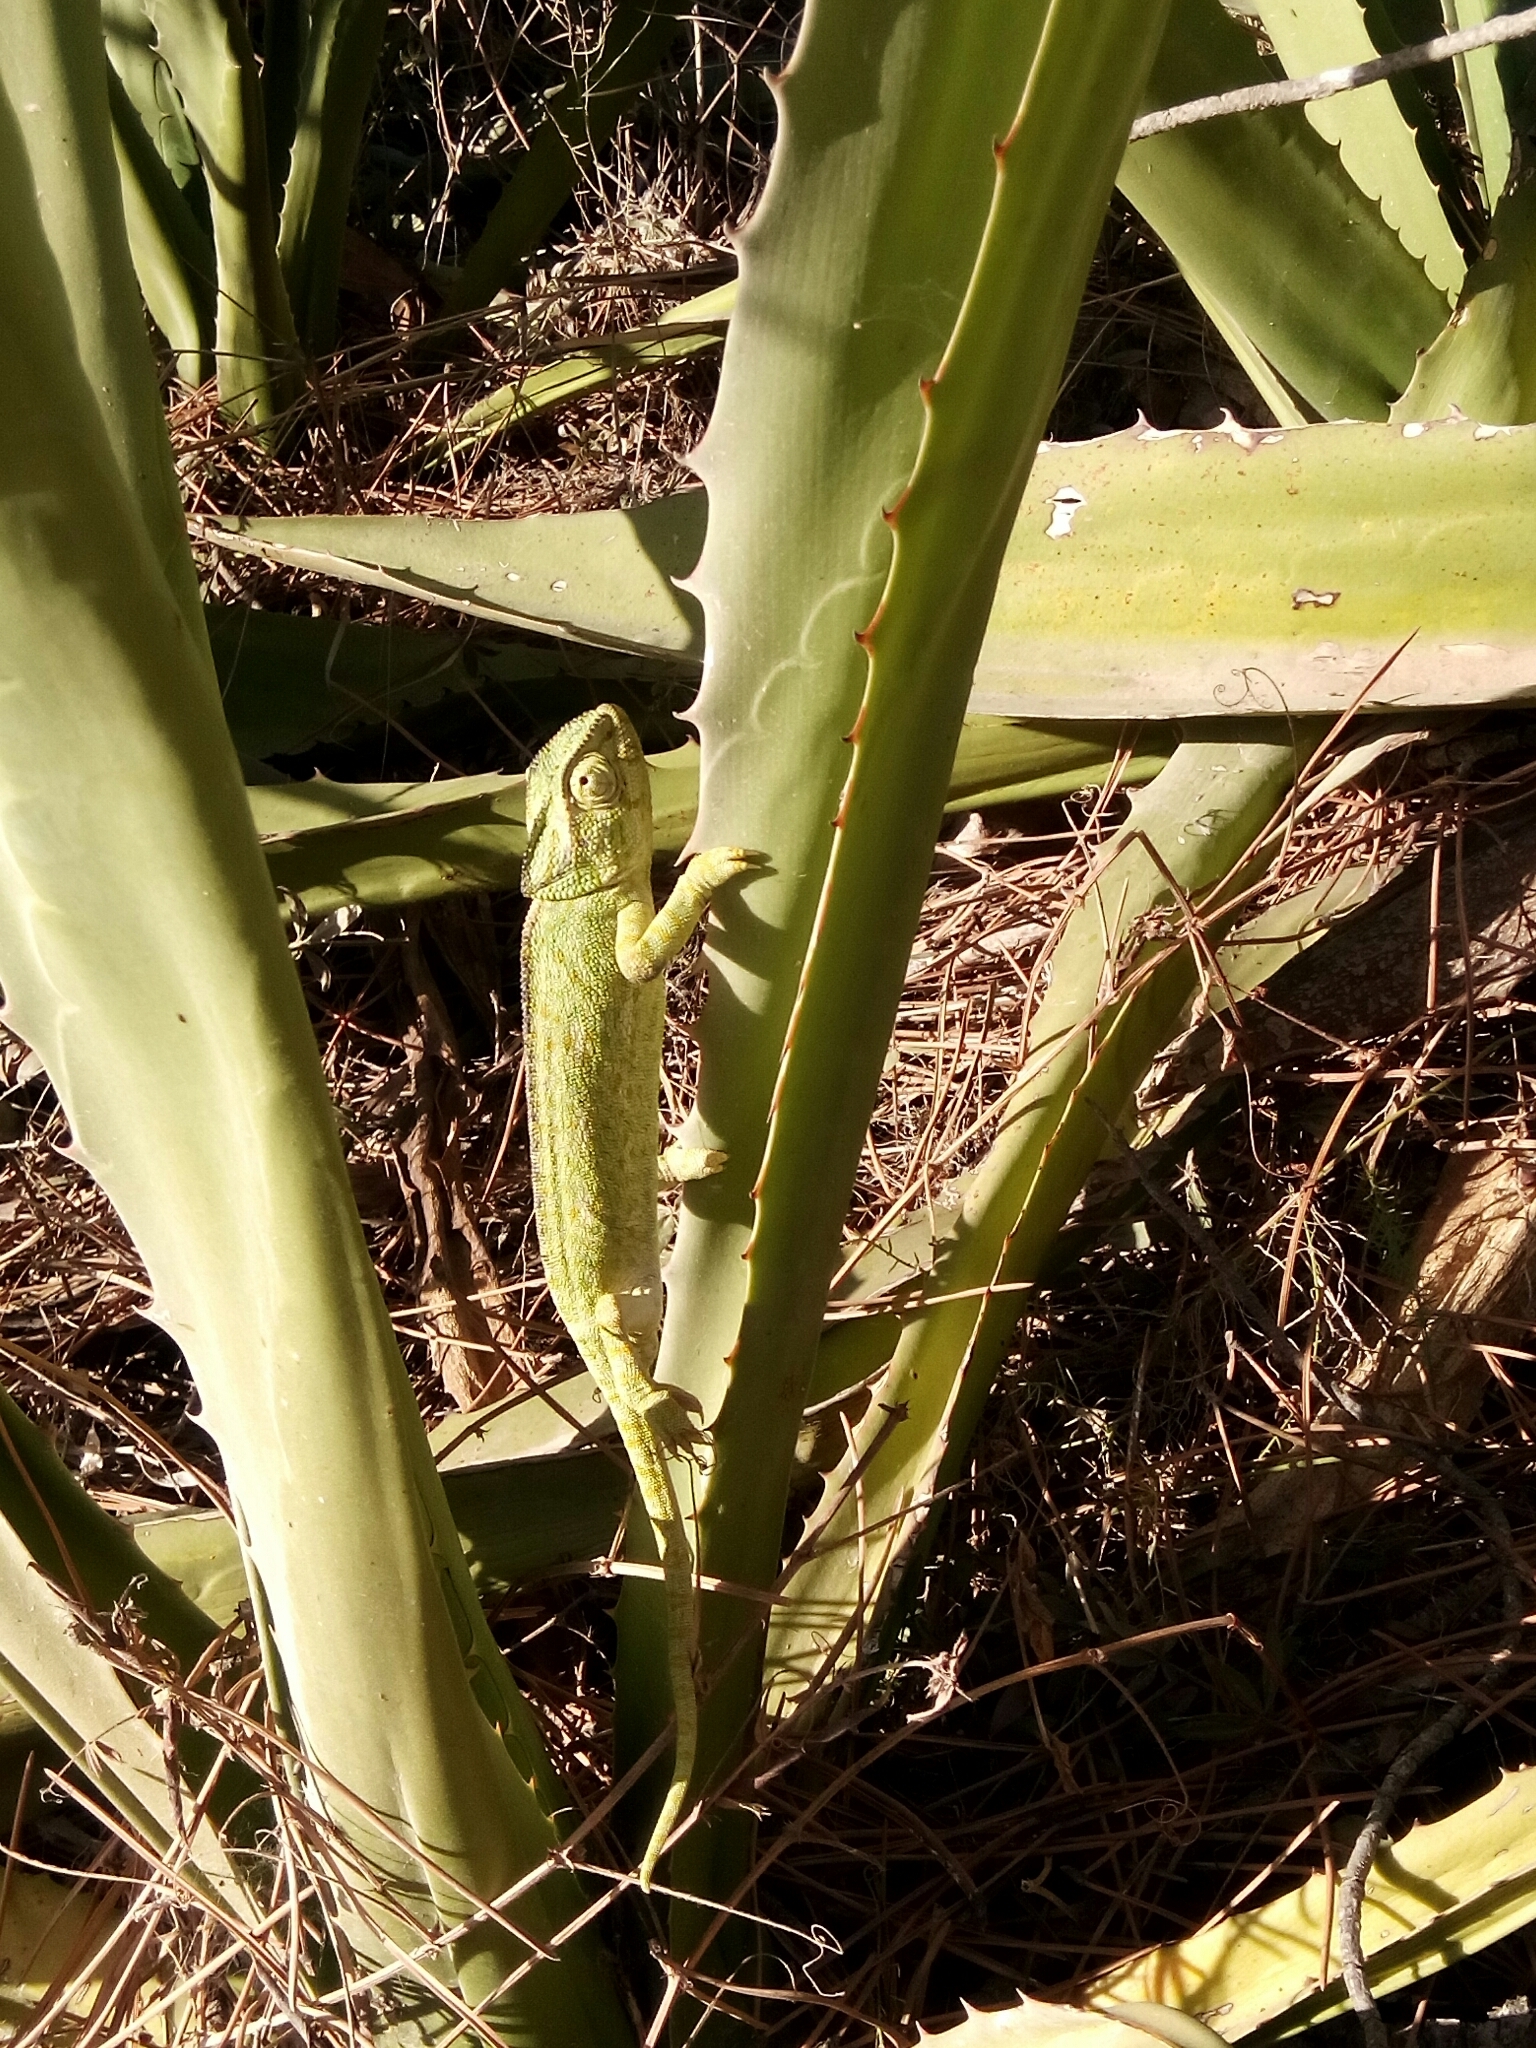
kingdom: Animalia
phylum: Chordata
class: Squamata
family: Chamaeleonidae
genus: Chamaeleo
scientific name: Chamaeleo chamaeleon
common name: Mediterranean chameleon
